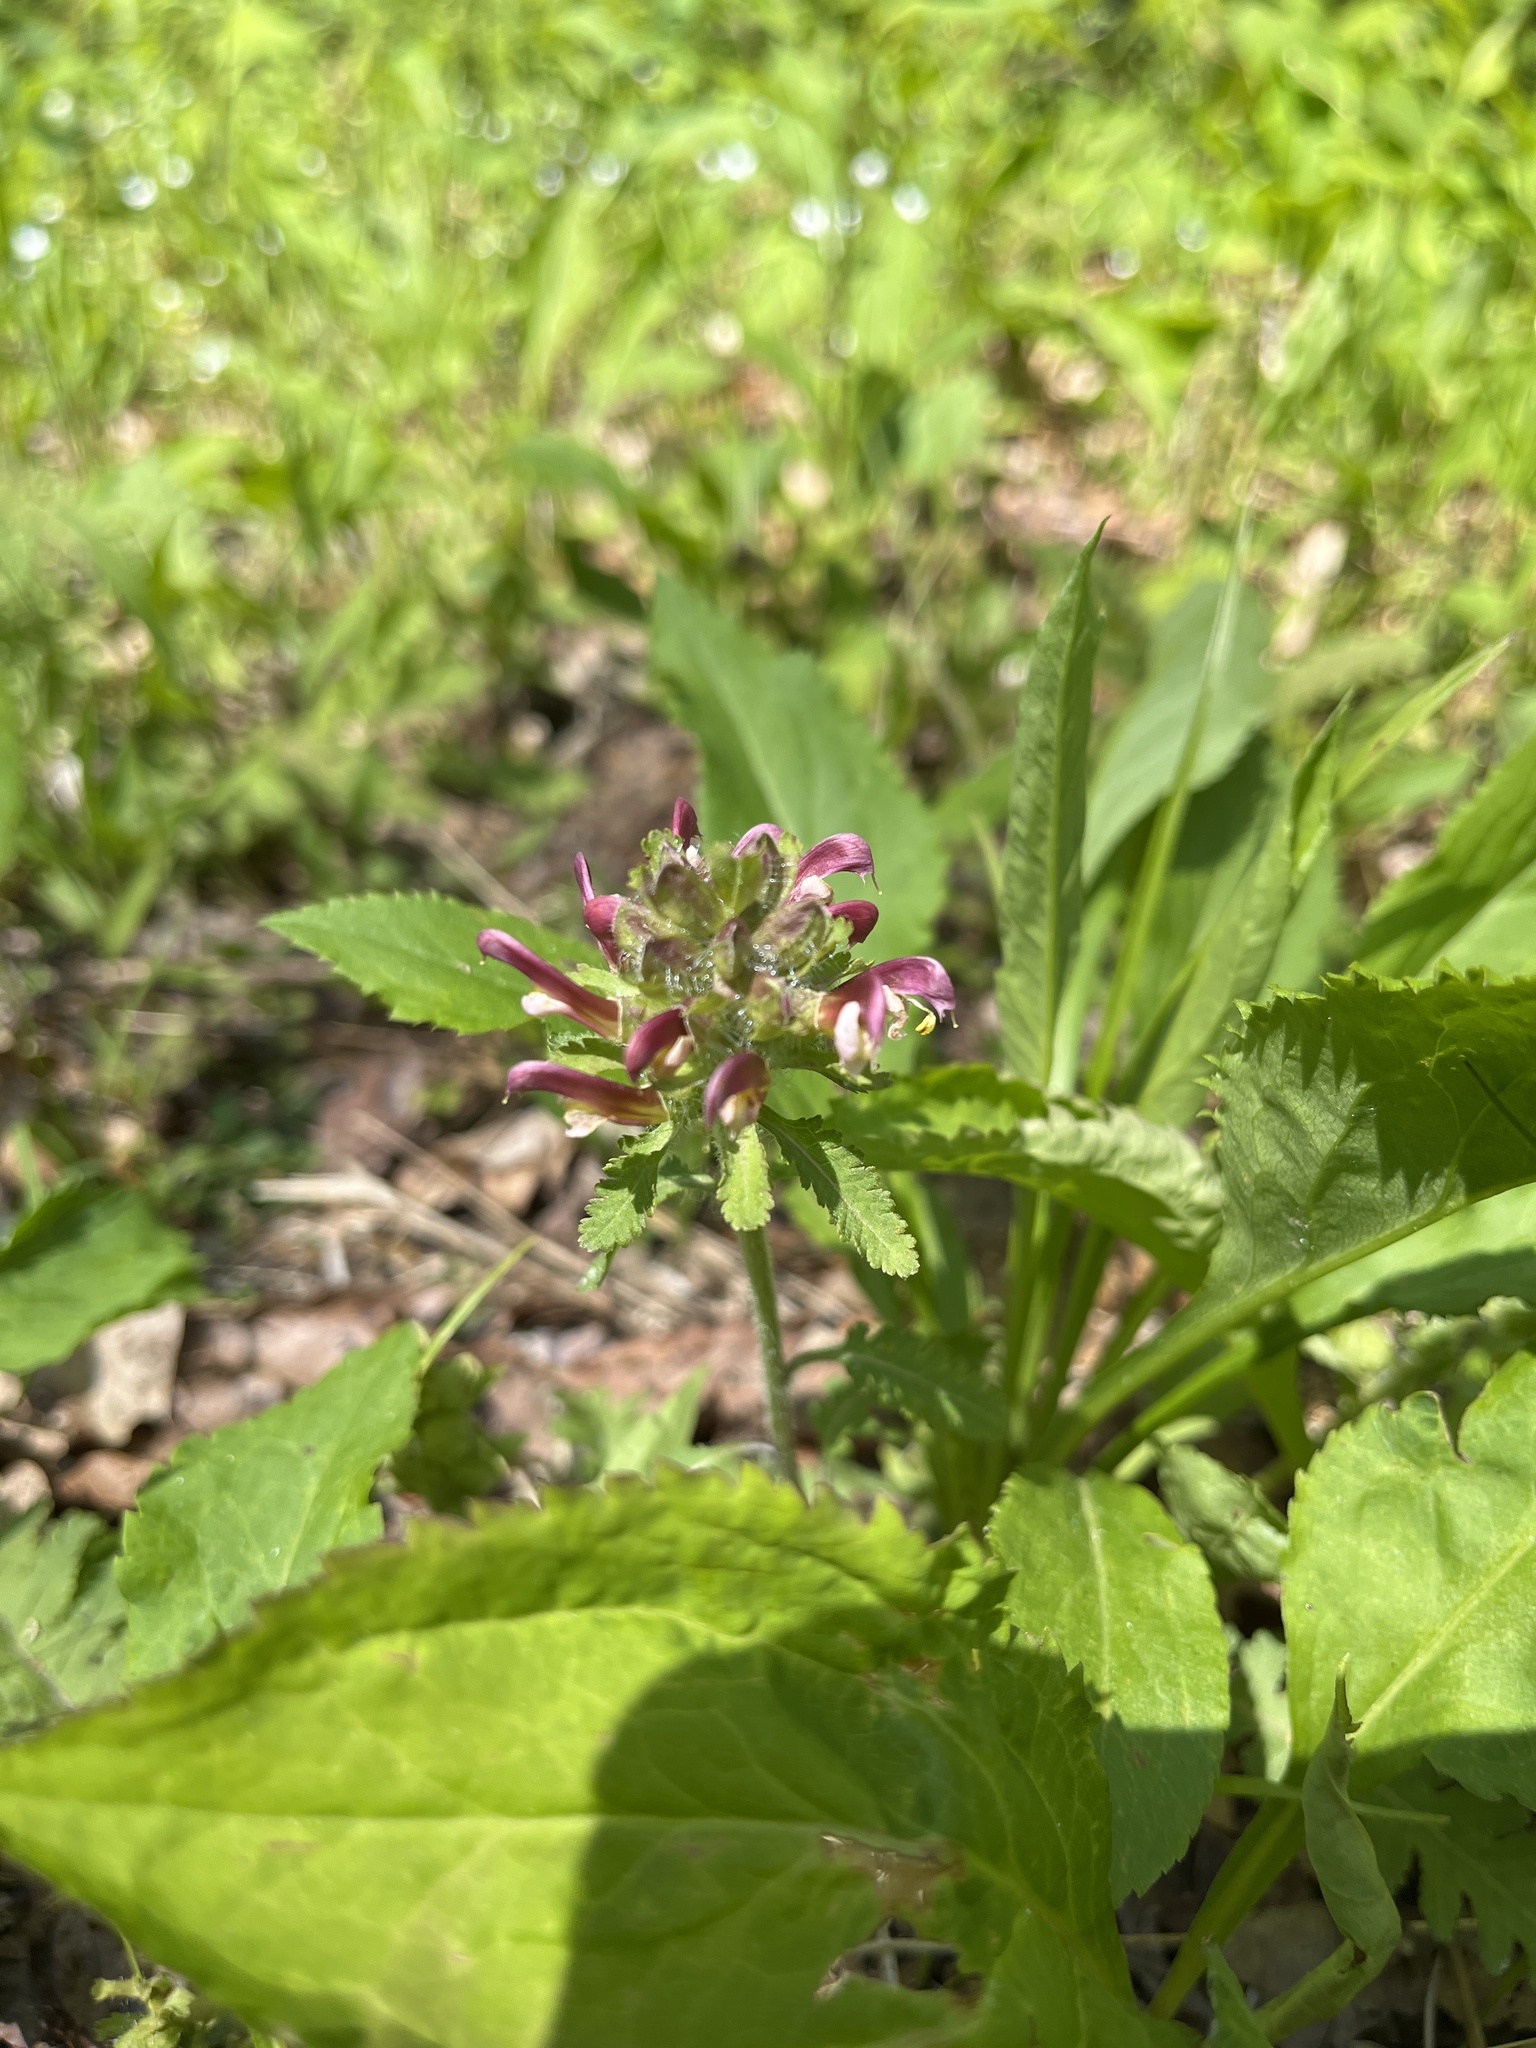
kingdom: Plantae
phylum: Tracheophyta
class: Magnoliopsida
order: Lamiales
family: Orobanchaceae
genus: Pedicularis
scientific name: Pedicularis canadensis
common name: Early lousewort
